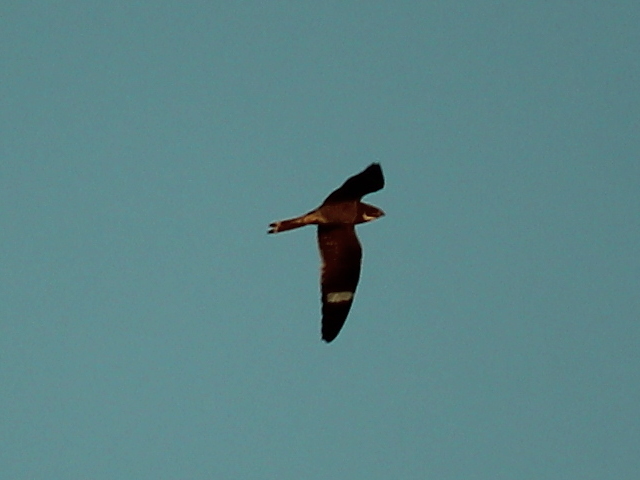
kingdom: Animalia
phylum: Chordata
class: Aves
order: Caprimulgiformes
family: Caprimulgidae
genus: Chordeiles
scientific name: Chordeiles minor
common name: Common nighthawk
